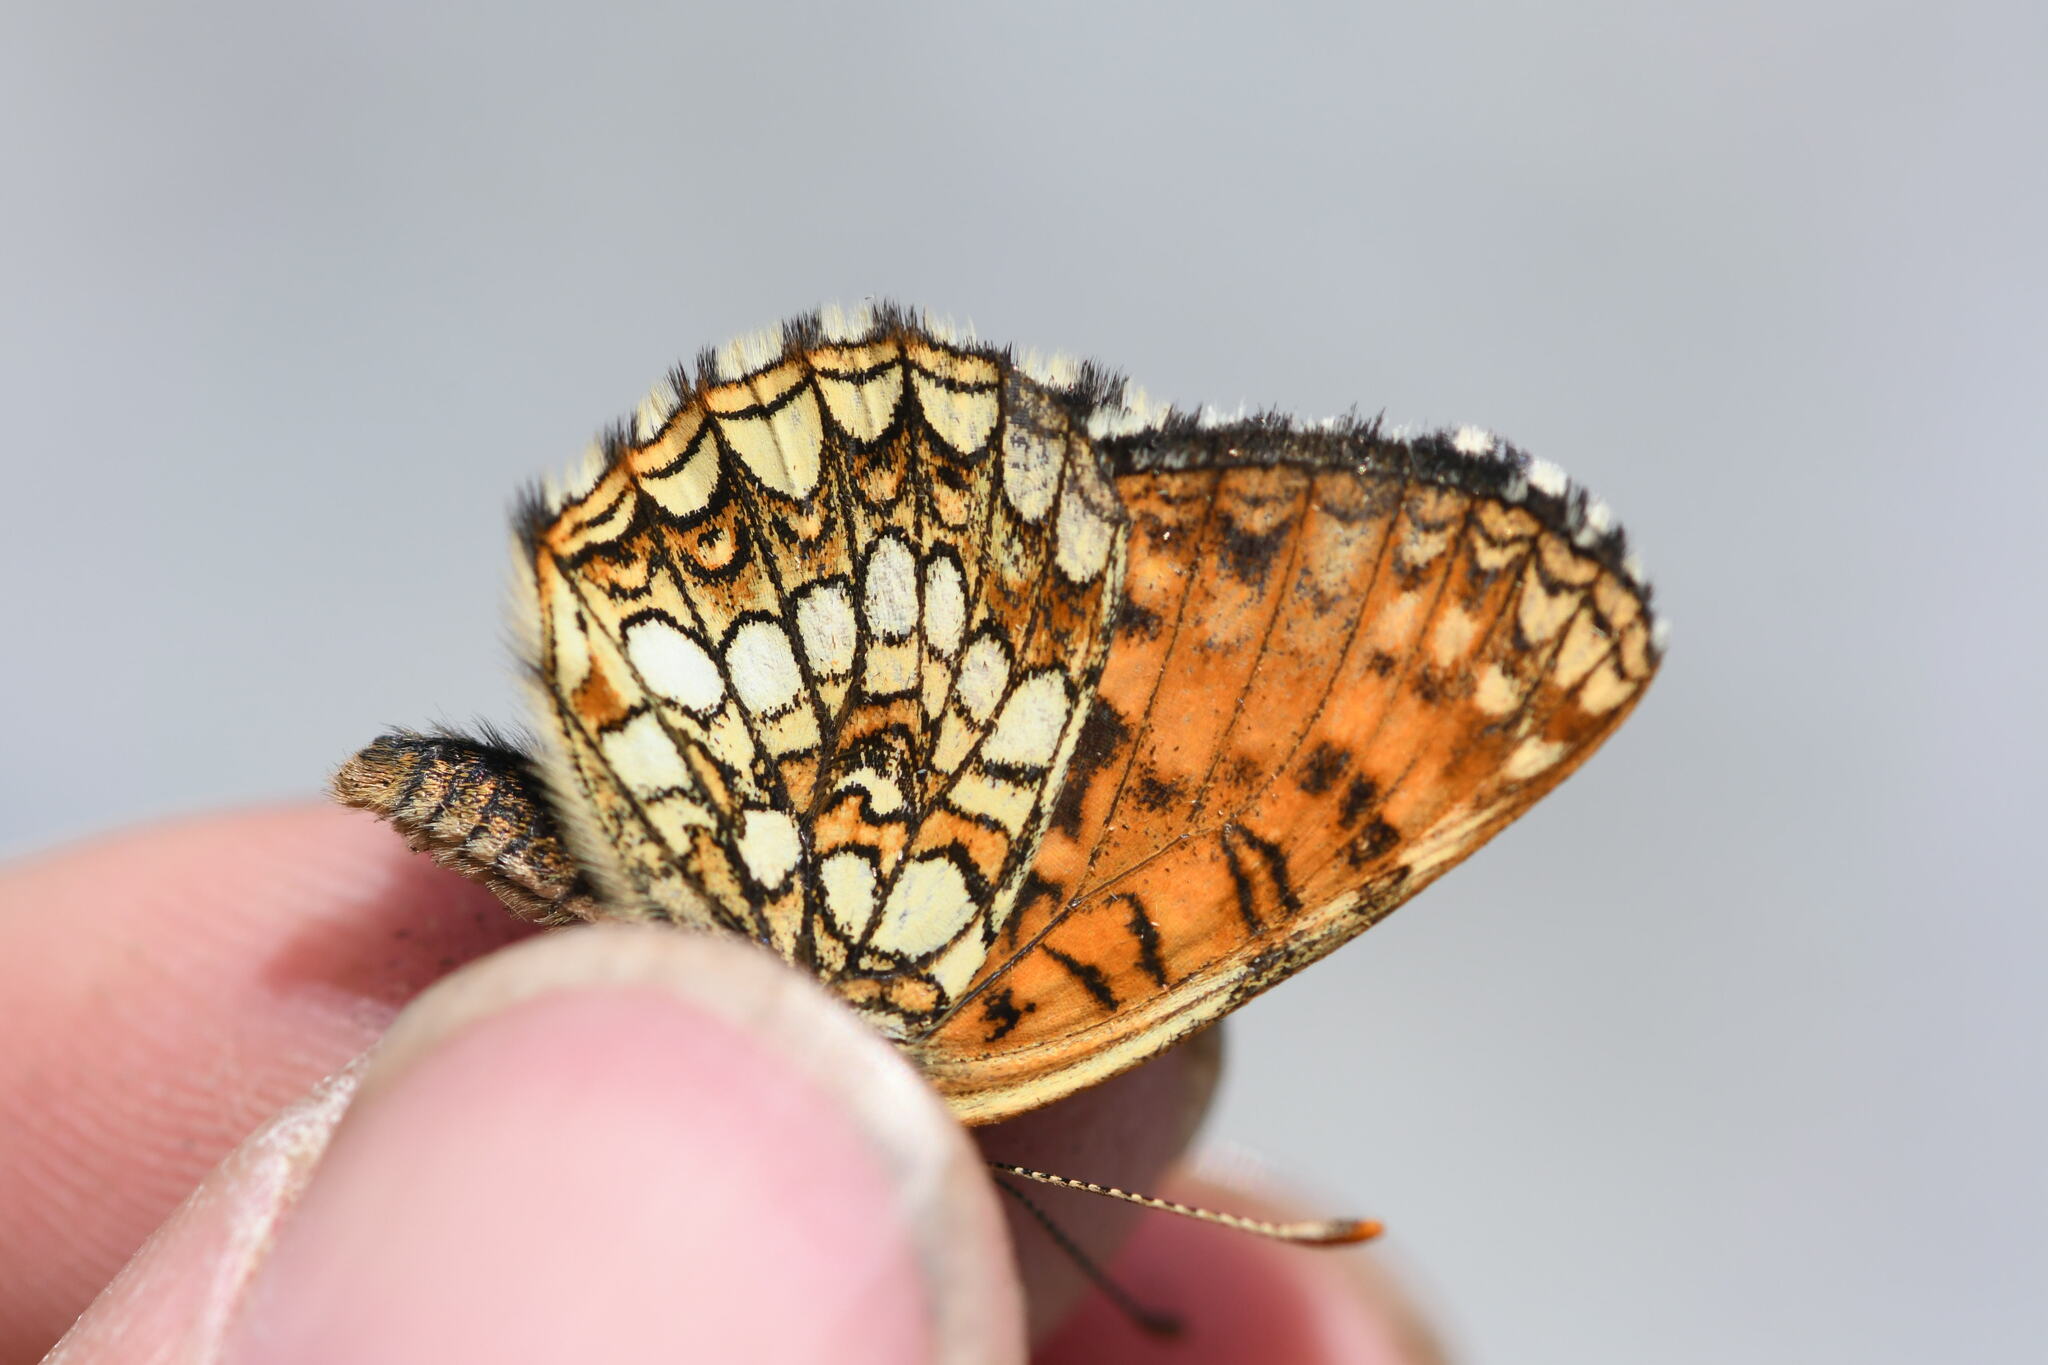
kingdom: Animalia
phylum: Arthropoda
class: Insecta
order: Lepidoptera
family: Nymphalidae
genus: Melitaea
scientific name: Melitaea diamina
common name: False heath fritillary
